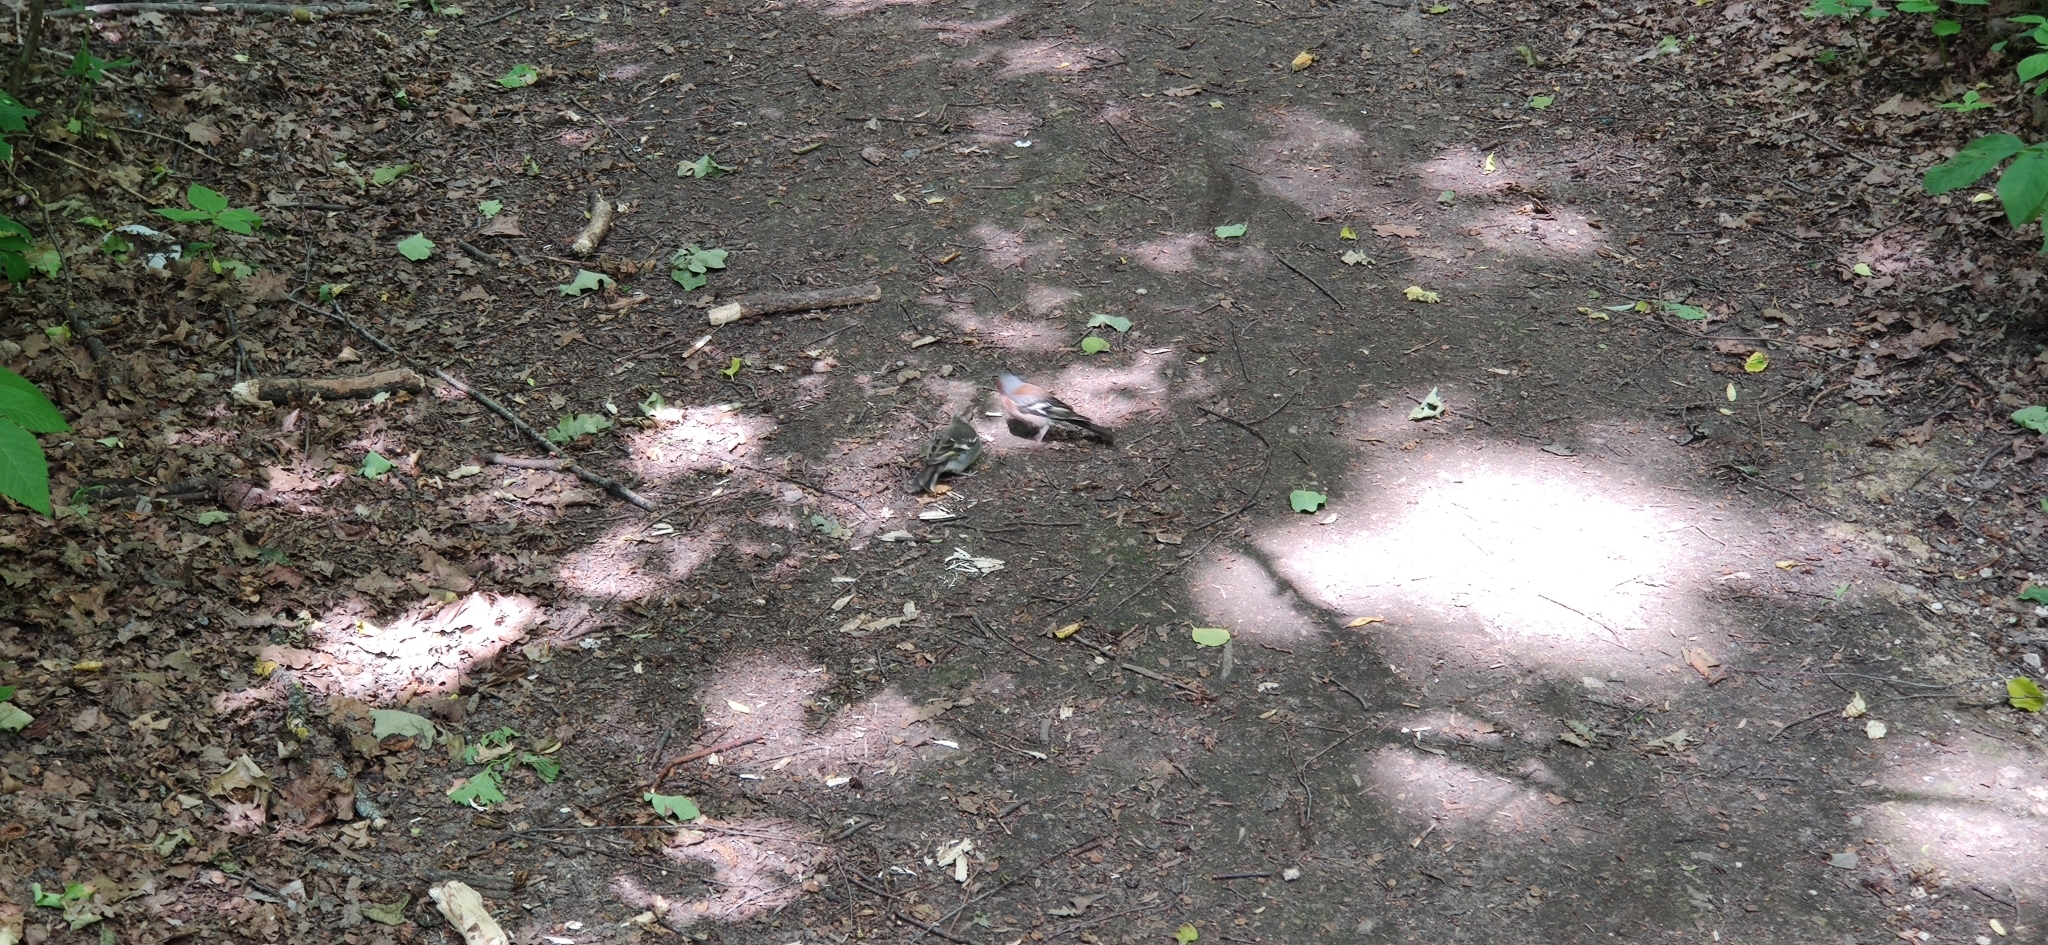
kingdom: Animalia
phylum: Chordata
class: Aves
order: Passeriformes
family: Fringillidae
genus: Fringilla
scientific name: Fringilla coelebs
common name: Common chaffinch
